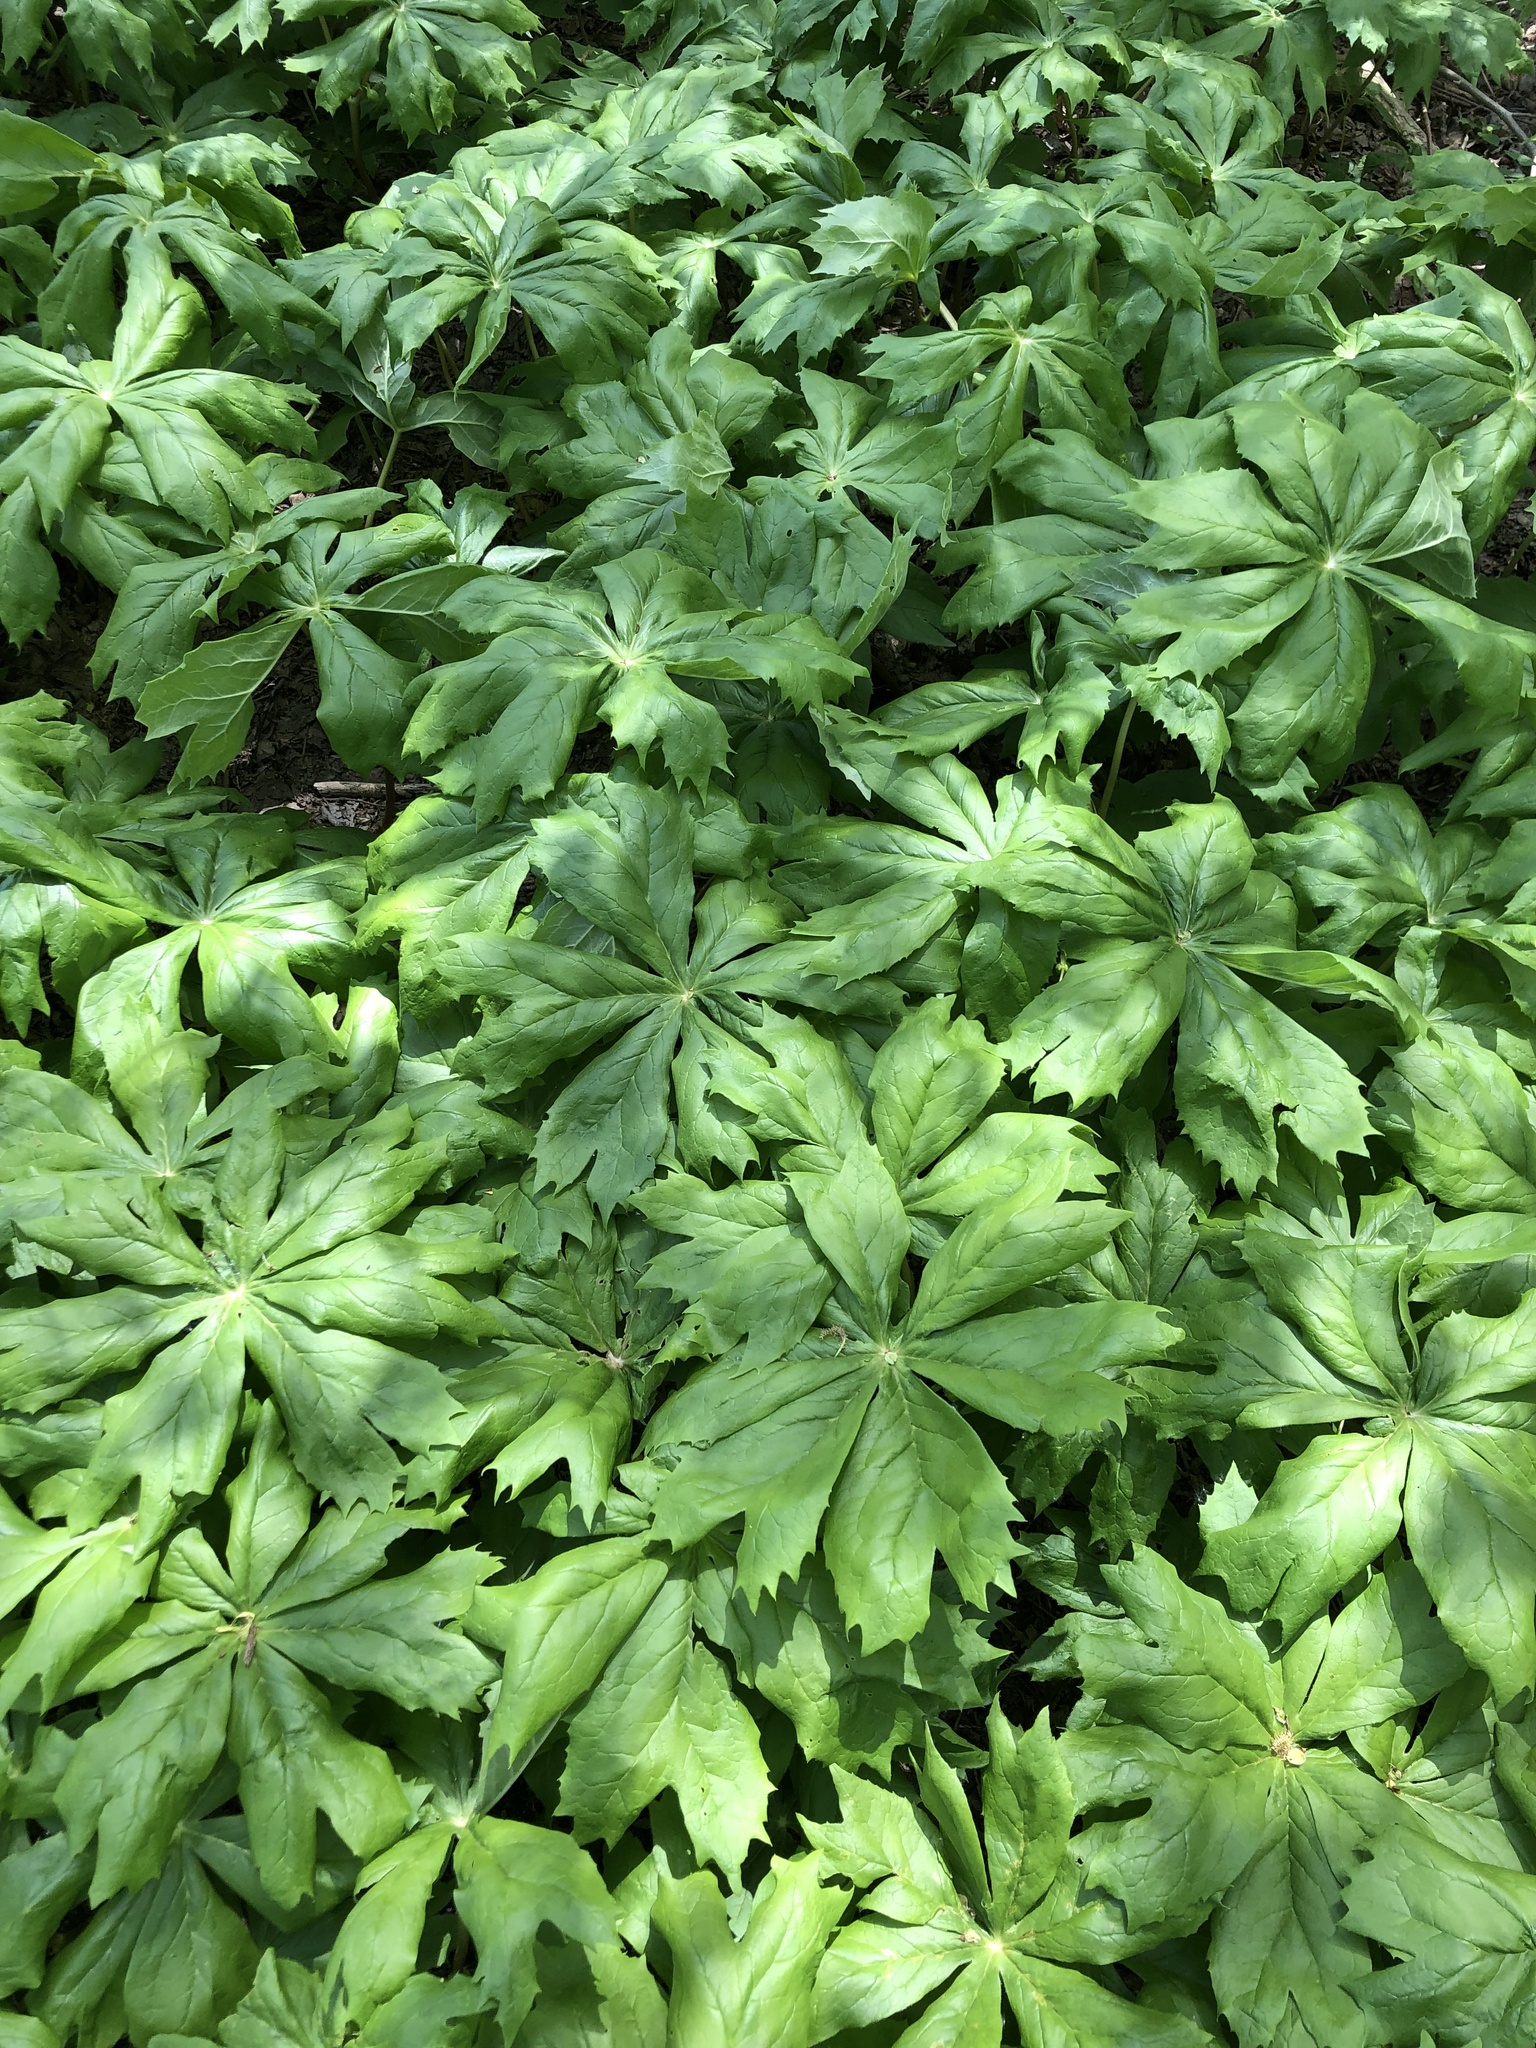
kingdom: Plantae
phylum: Tracheophyta
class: Magnoliopsida
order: Ranunculales
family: Berberidaceae
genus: Podophyllum
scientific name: Podophyllum peltatum
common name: Wild mandrake
